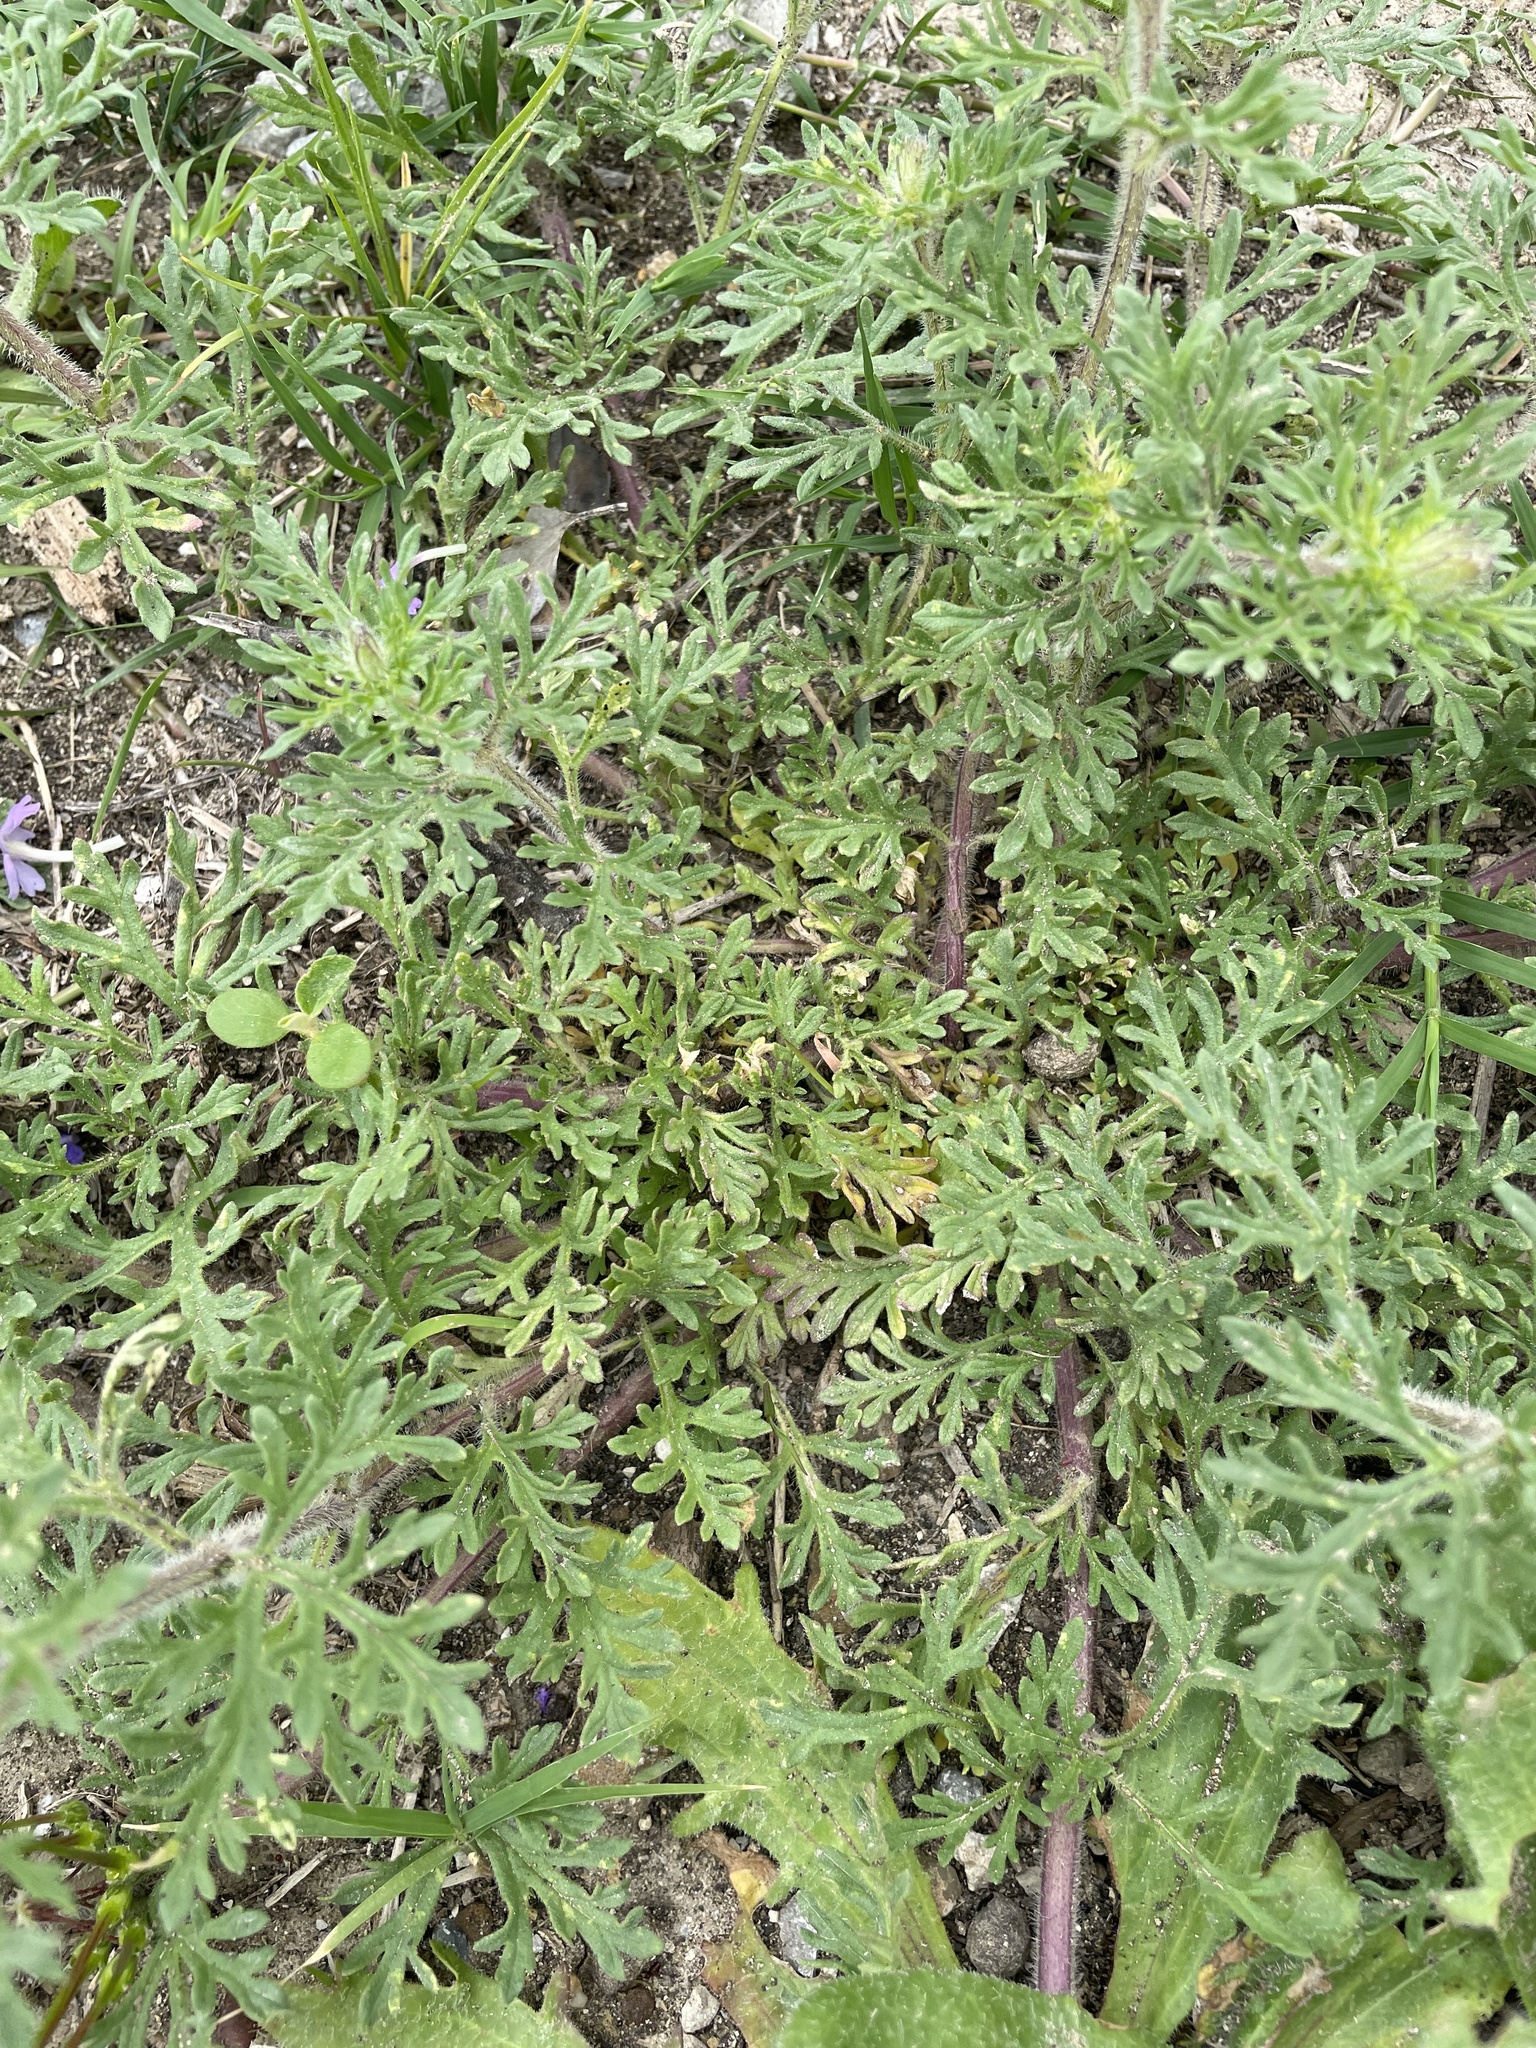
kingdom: Plantae
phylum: Tracheophyta
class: Magnoliopsida
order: Lamiales
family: Verbenaceae
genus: Verbena
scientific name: Verbena bipinnatifida
